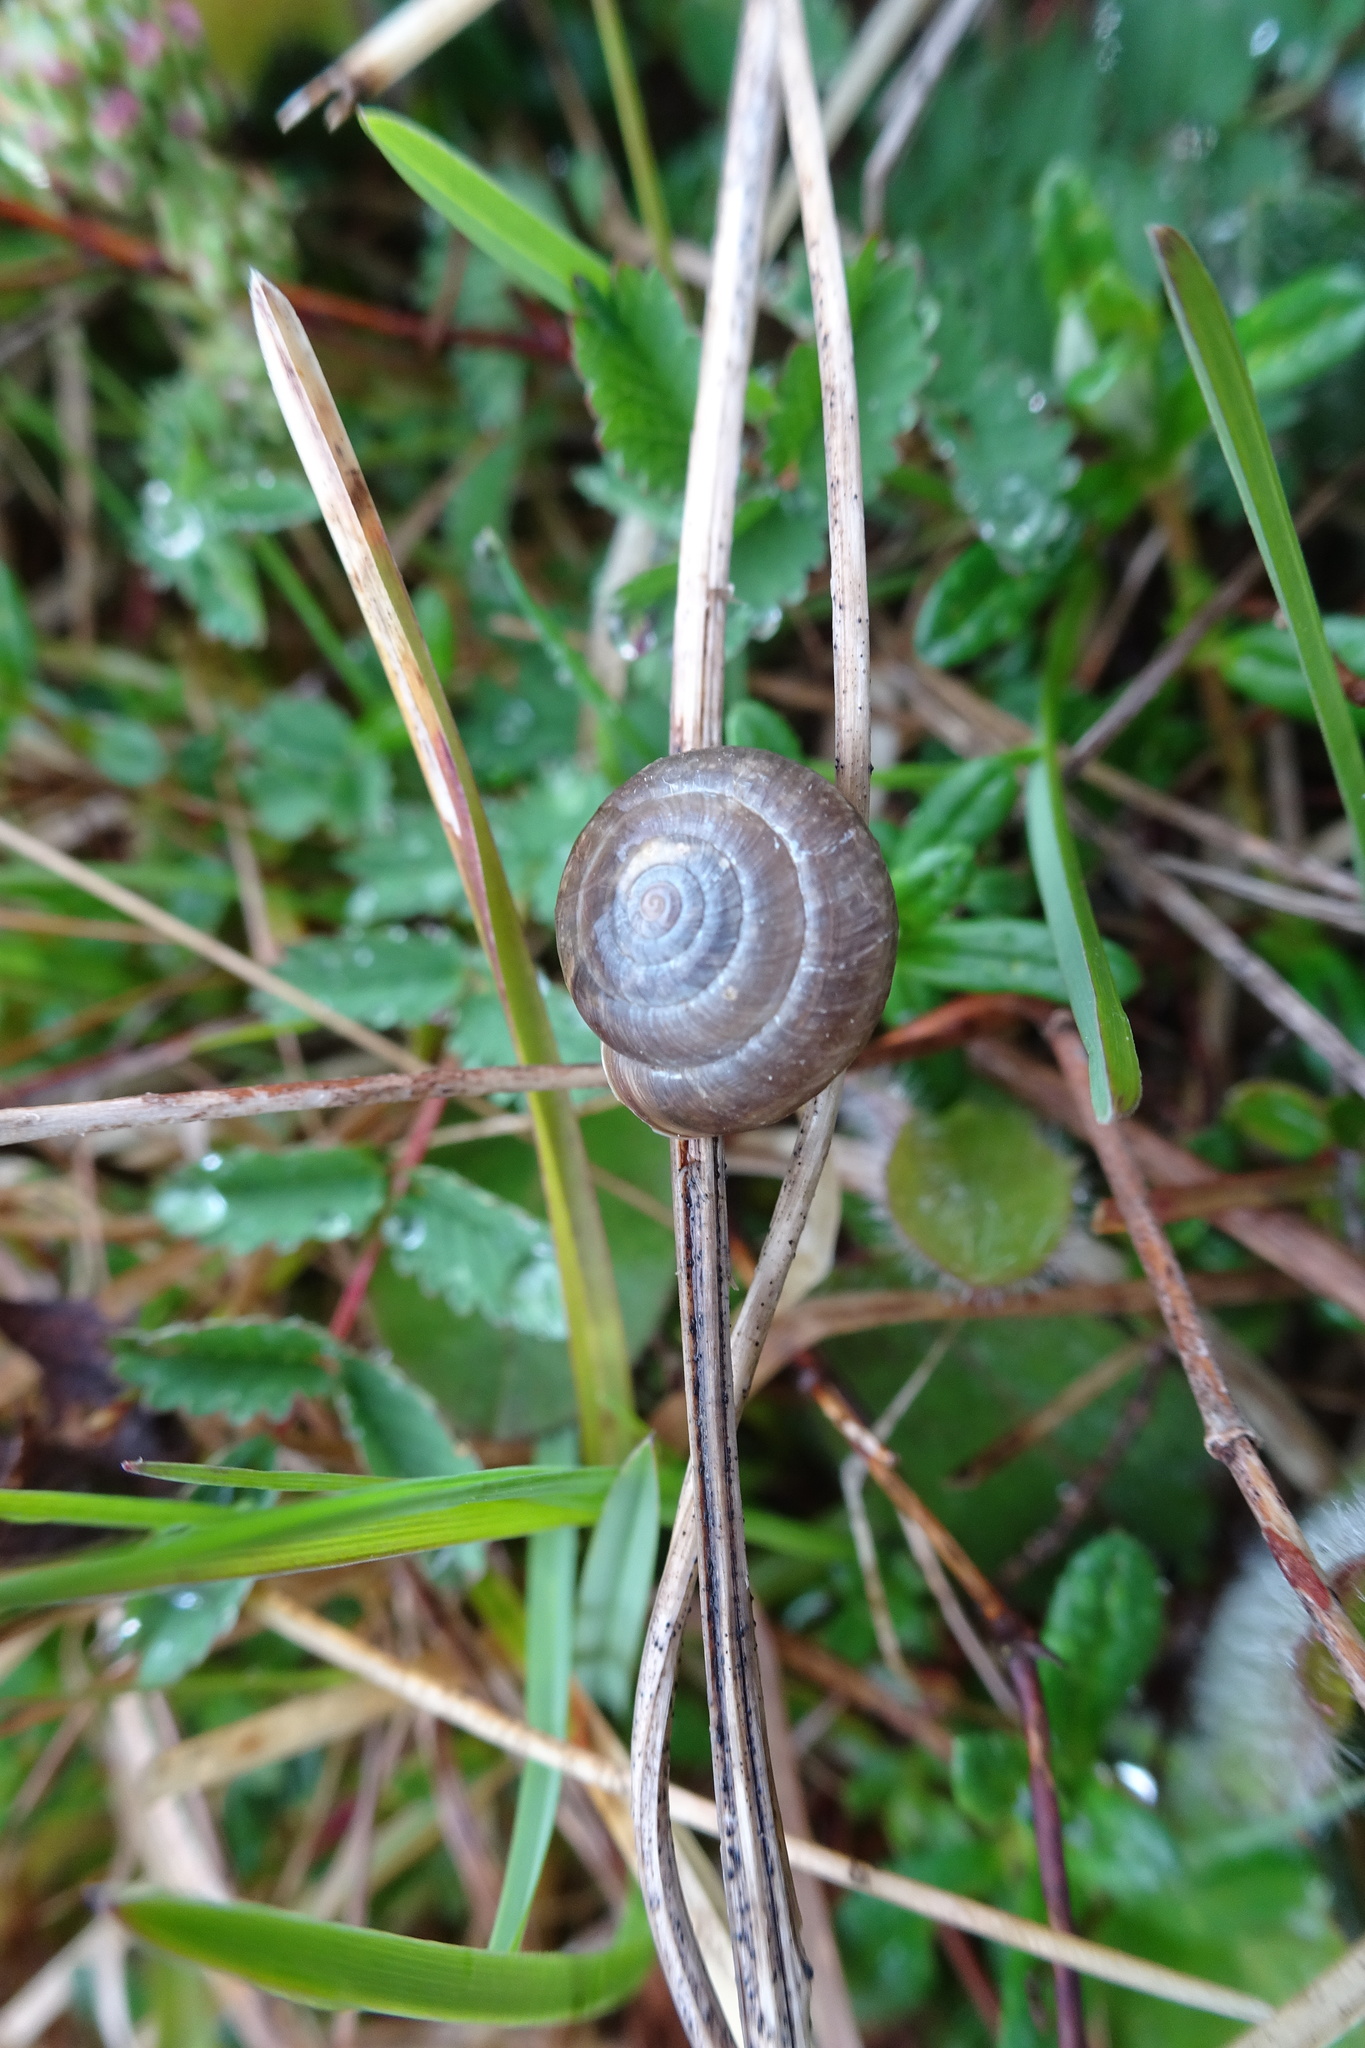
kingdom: Animalia
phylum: Mollusca
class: Gastropoda
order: Stylommatophora
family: Hygromiidae
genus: Trochulus
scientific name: Trochulus striolatus
